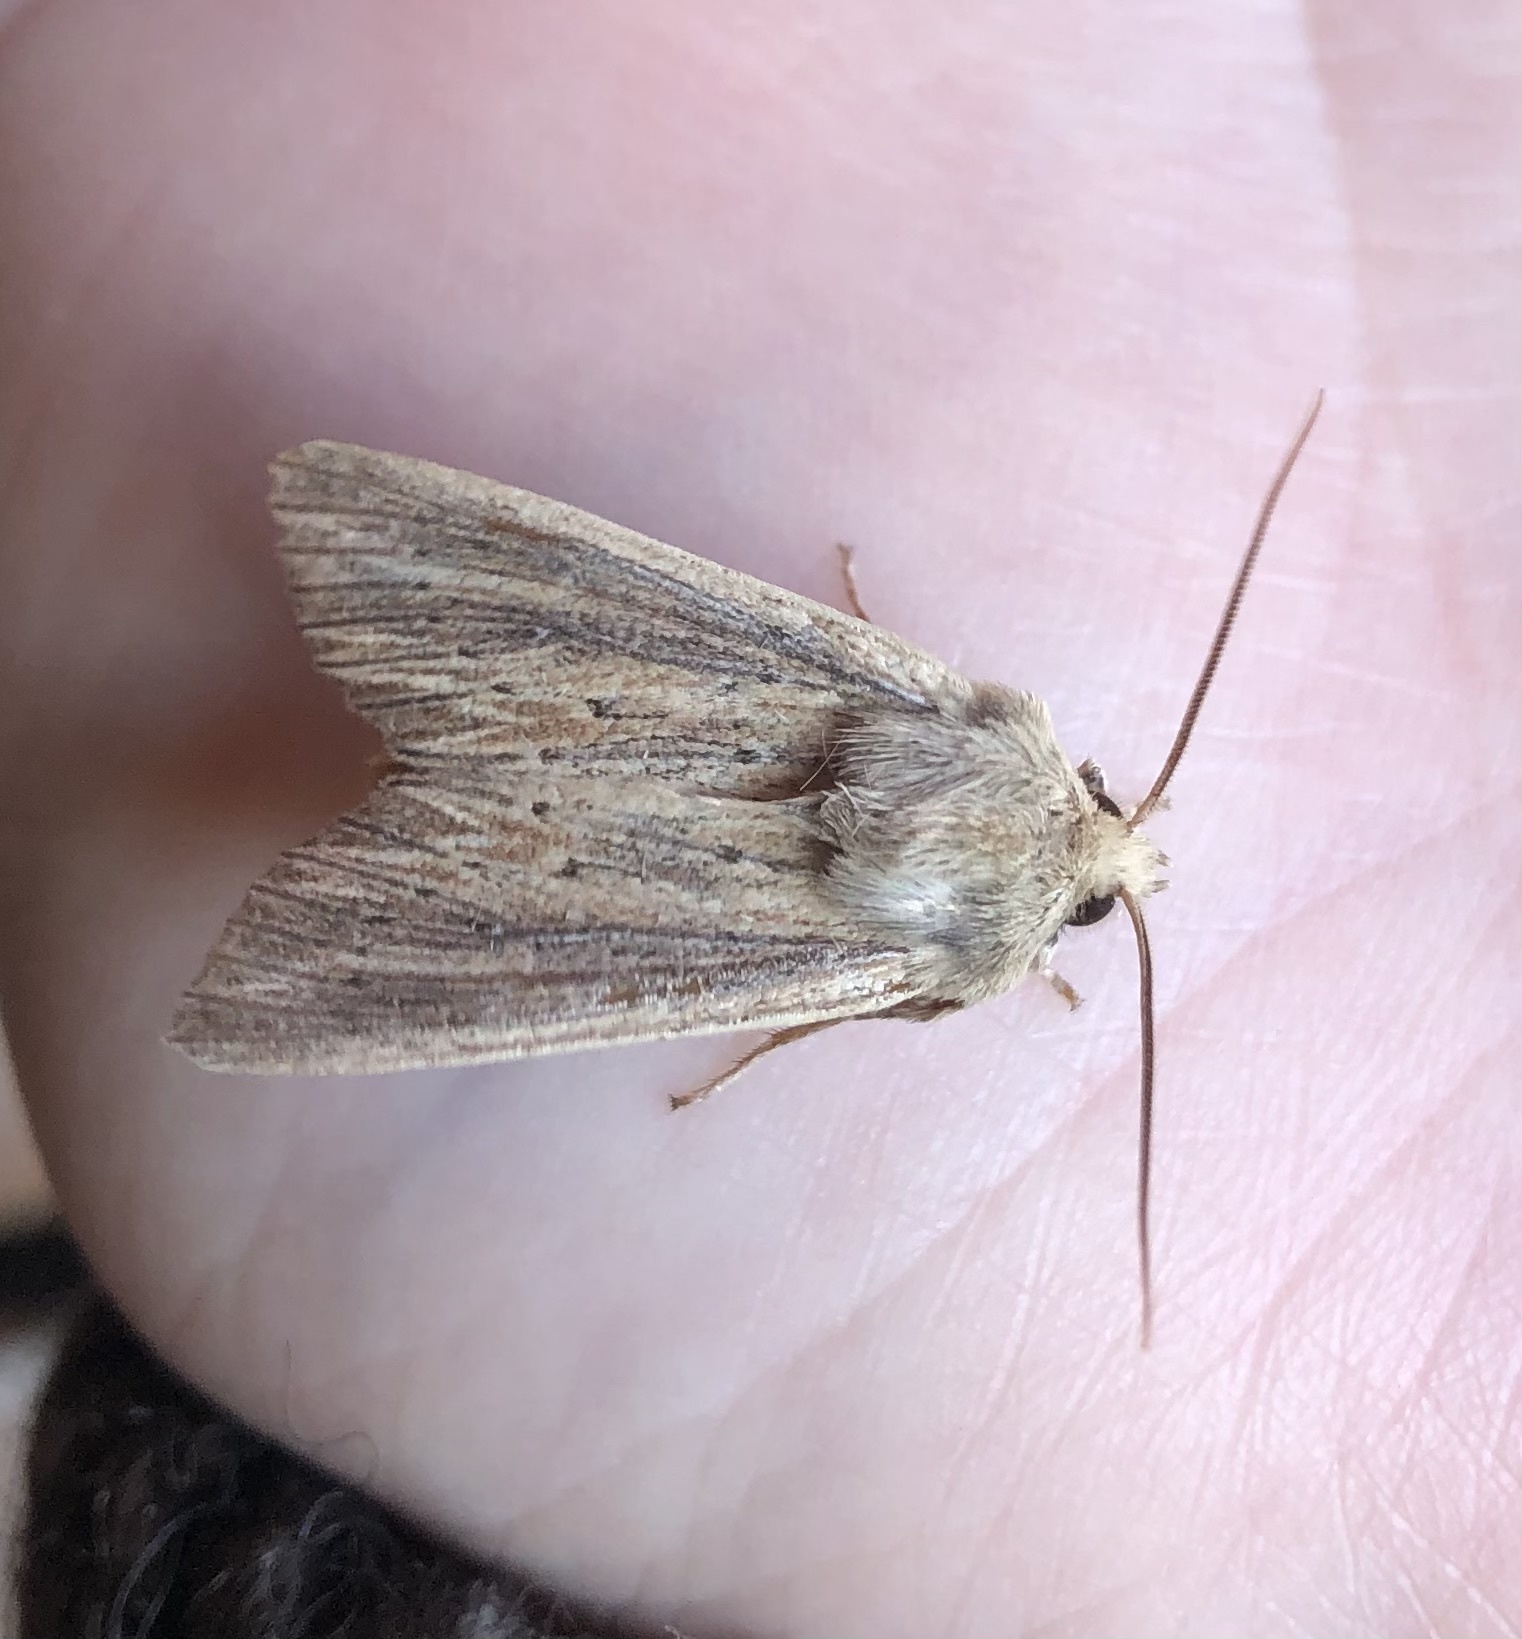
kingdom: Animalia
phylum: Arthropoda
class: Insecta
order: Lepidoptera
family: Noctuidae
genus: Ichneutica
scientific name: Ichneutica arotis
